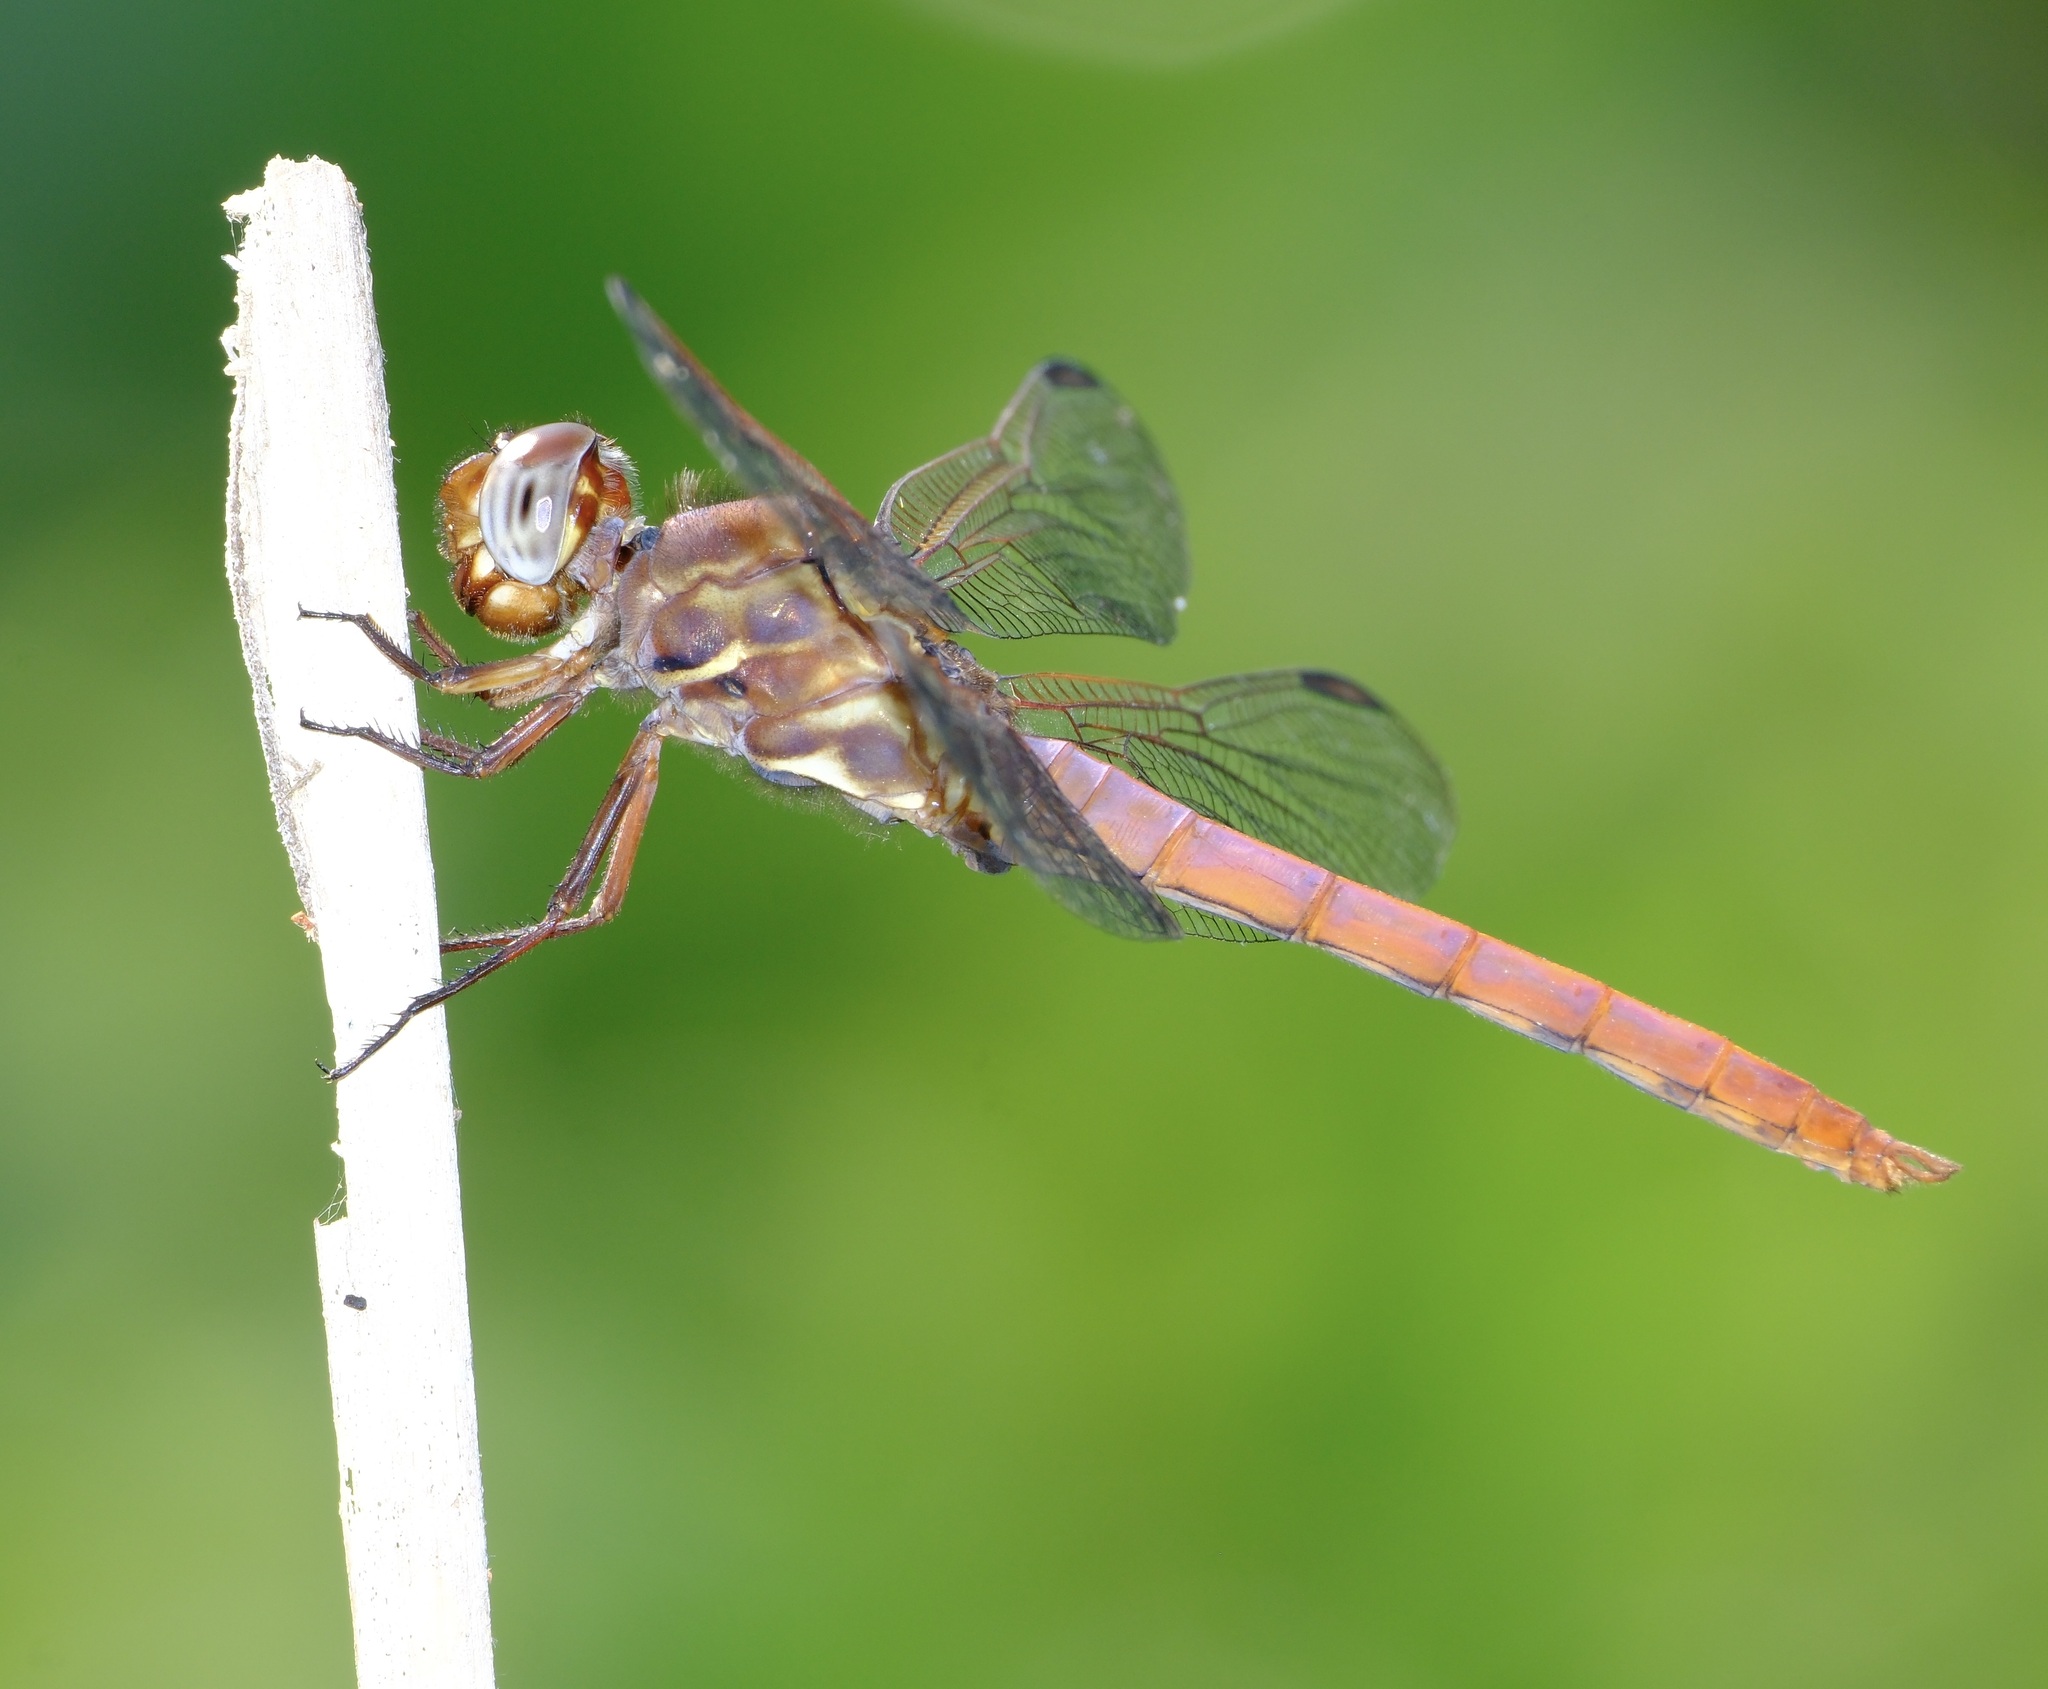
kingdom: Animalia
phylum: Arthropoda
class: Insecta
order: Odonata
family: Libellulidae
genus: Orthemis
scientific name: Orthemis ferruginea
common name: Roseate skimmer
